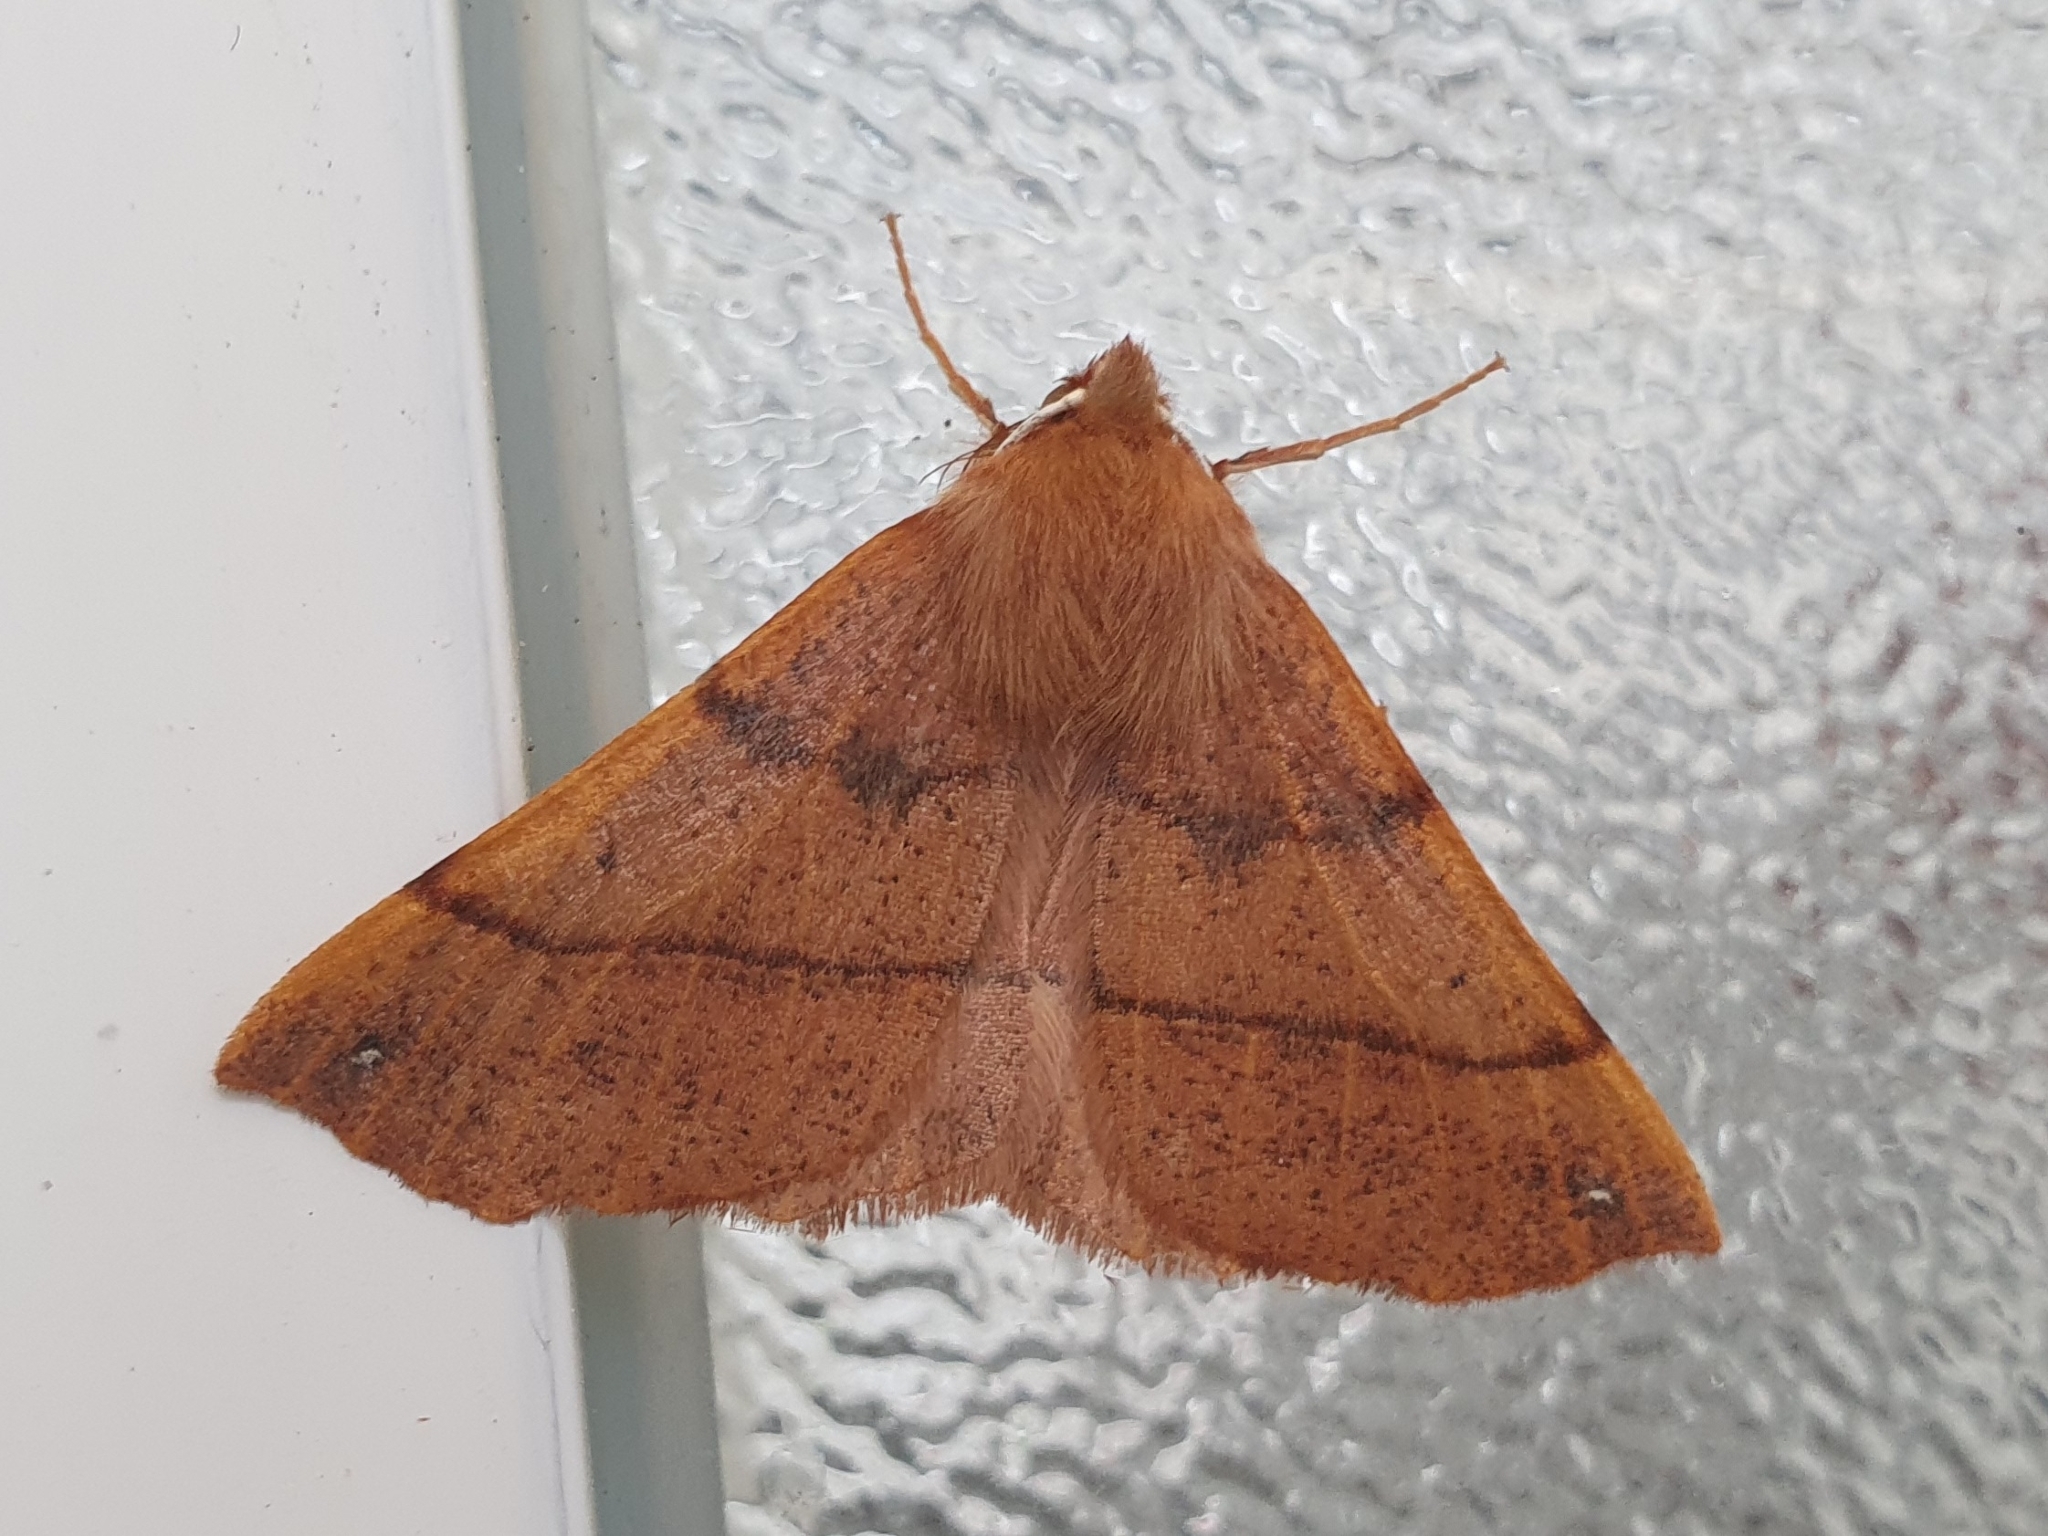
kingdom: Animalia
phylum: Arthropoda
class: Insecta
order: Lepidoptera
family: Geometridae
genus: Colotois
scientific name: Colotois pennaria
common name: Feathered thorn
